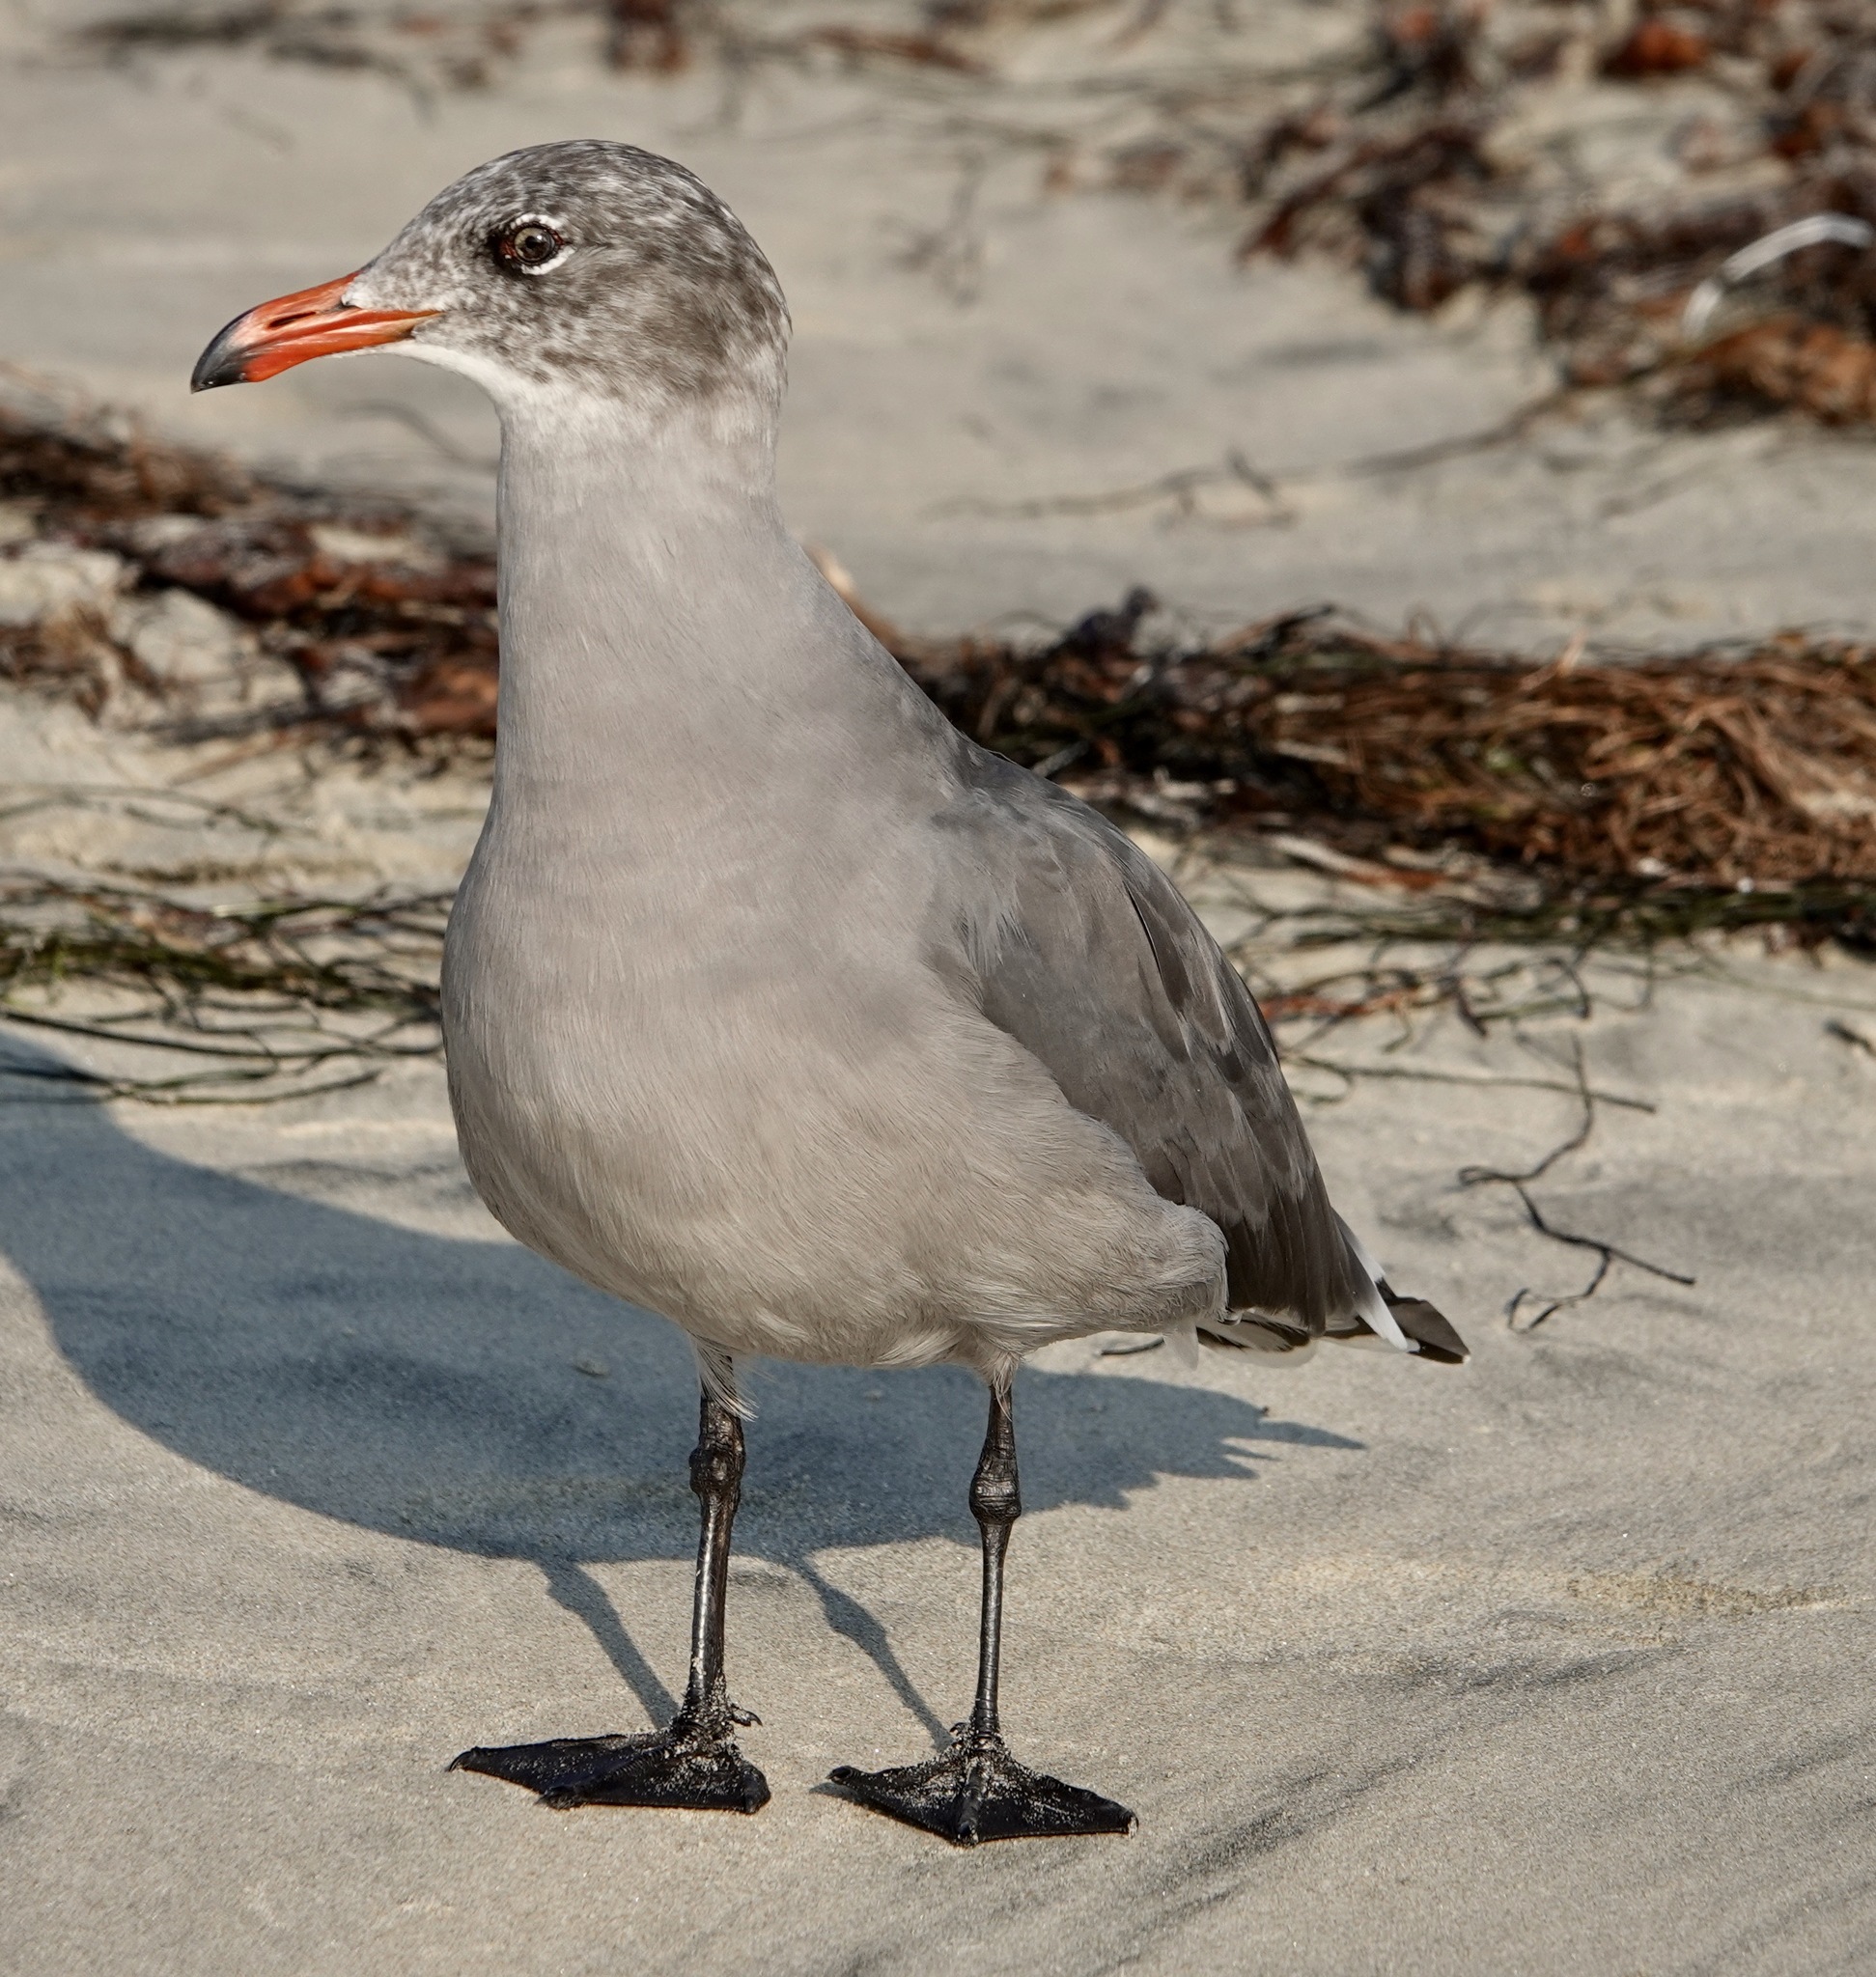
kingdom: Animalia
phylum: Chordata
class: Aves
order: Charadriiformes
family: Laridae
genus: Larus
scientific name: Larus heermanni
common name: Heermann's gull
